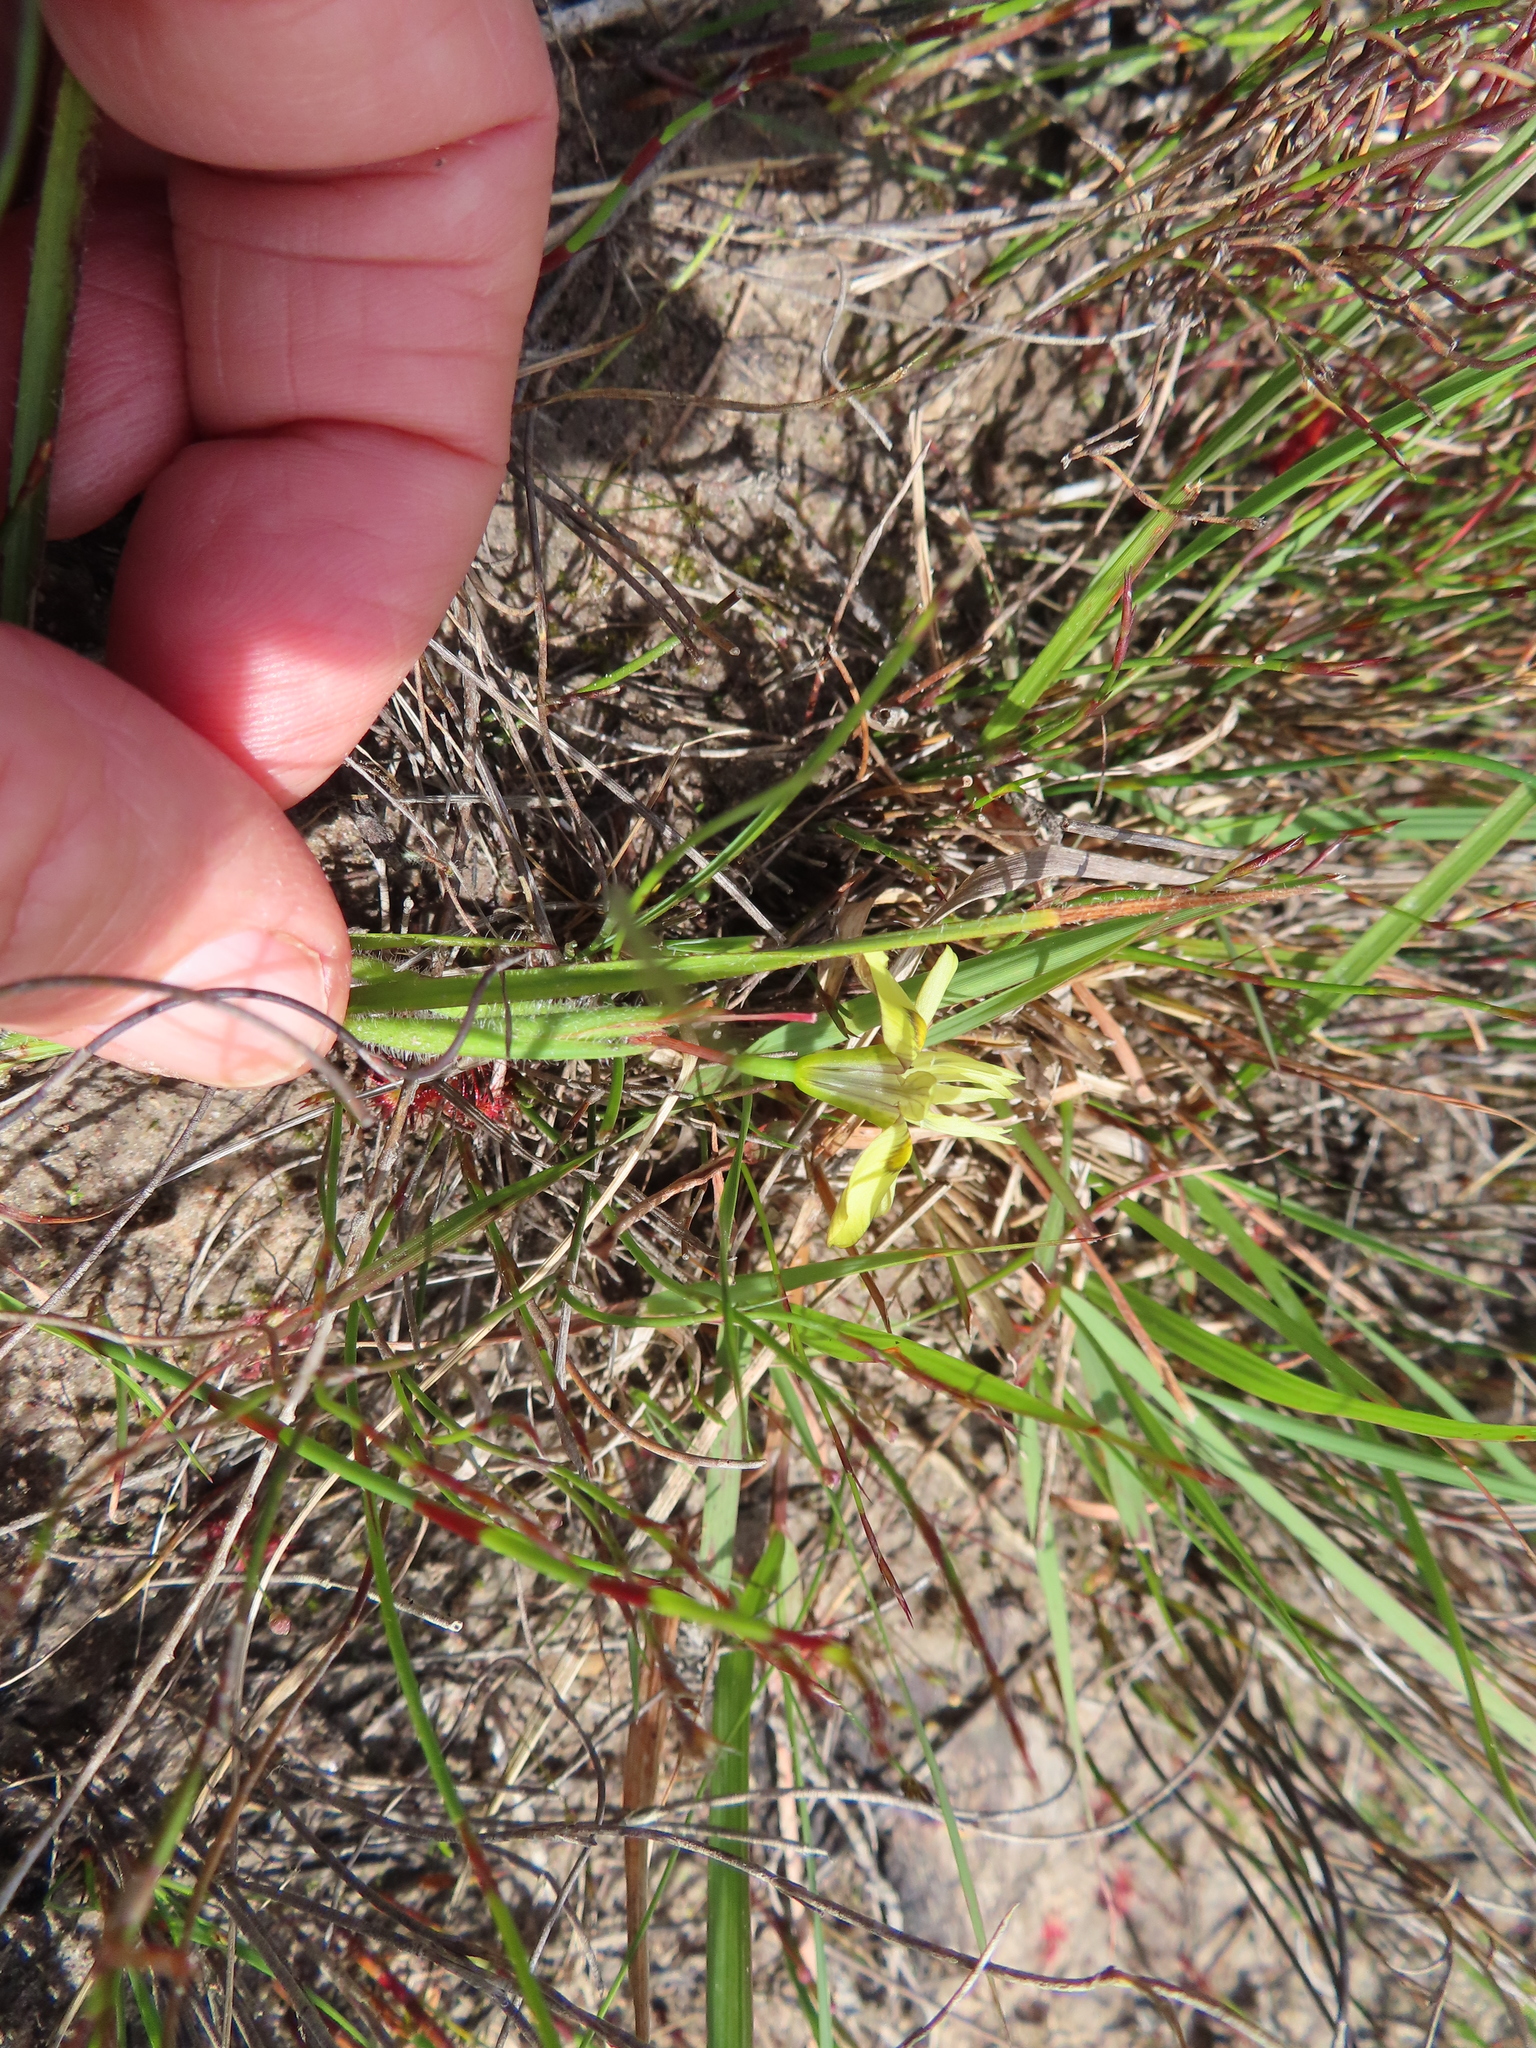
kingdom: Plantae
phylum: Tracheophyta
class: Liliopsida
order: Asparagales
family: Iridaceae
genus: Moraea
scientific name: Moraea papilionacea
